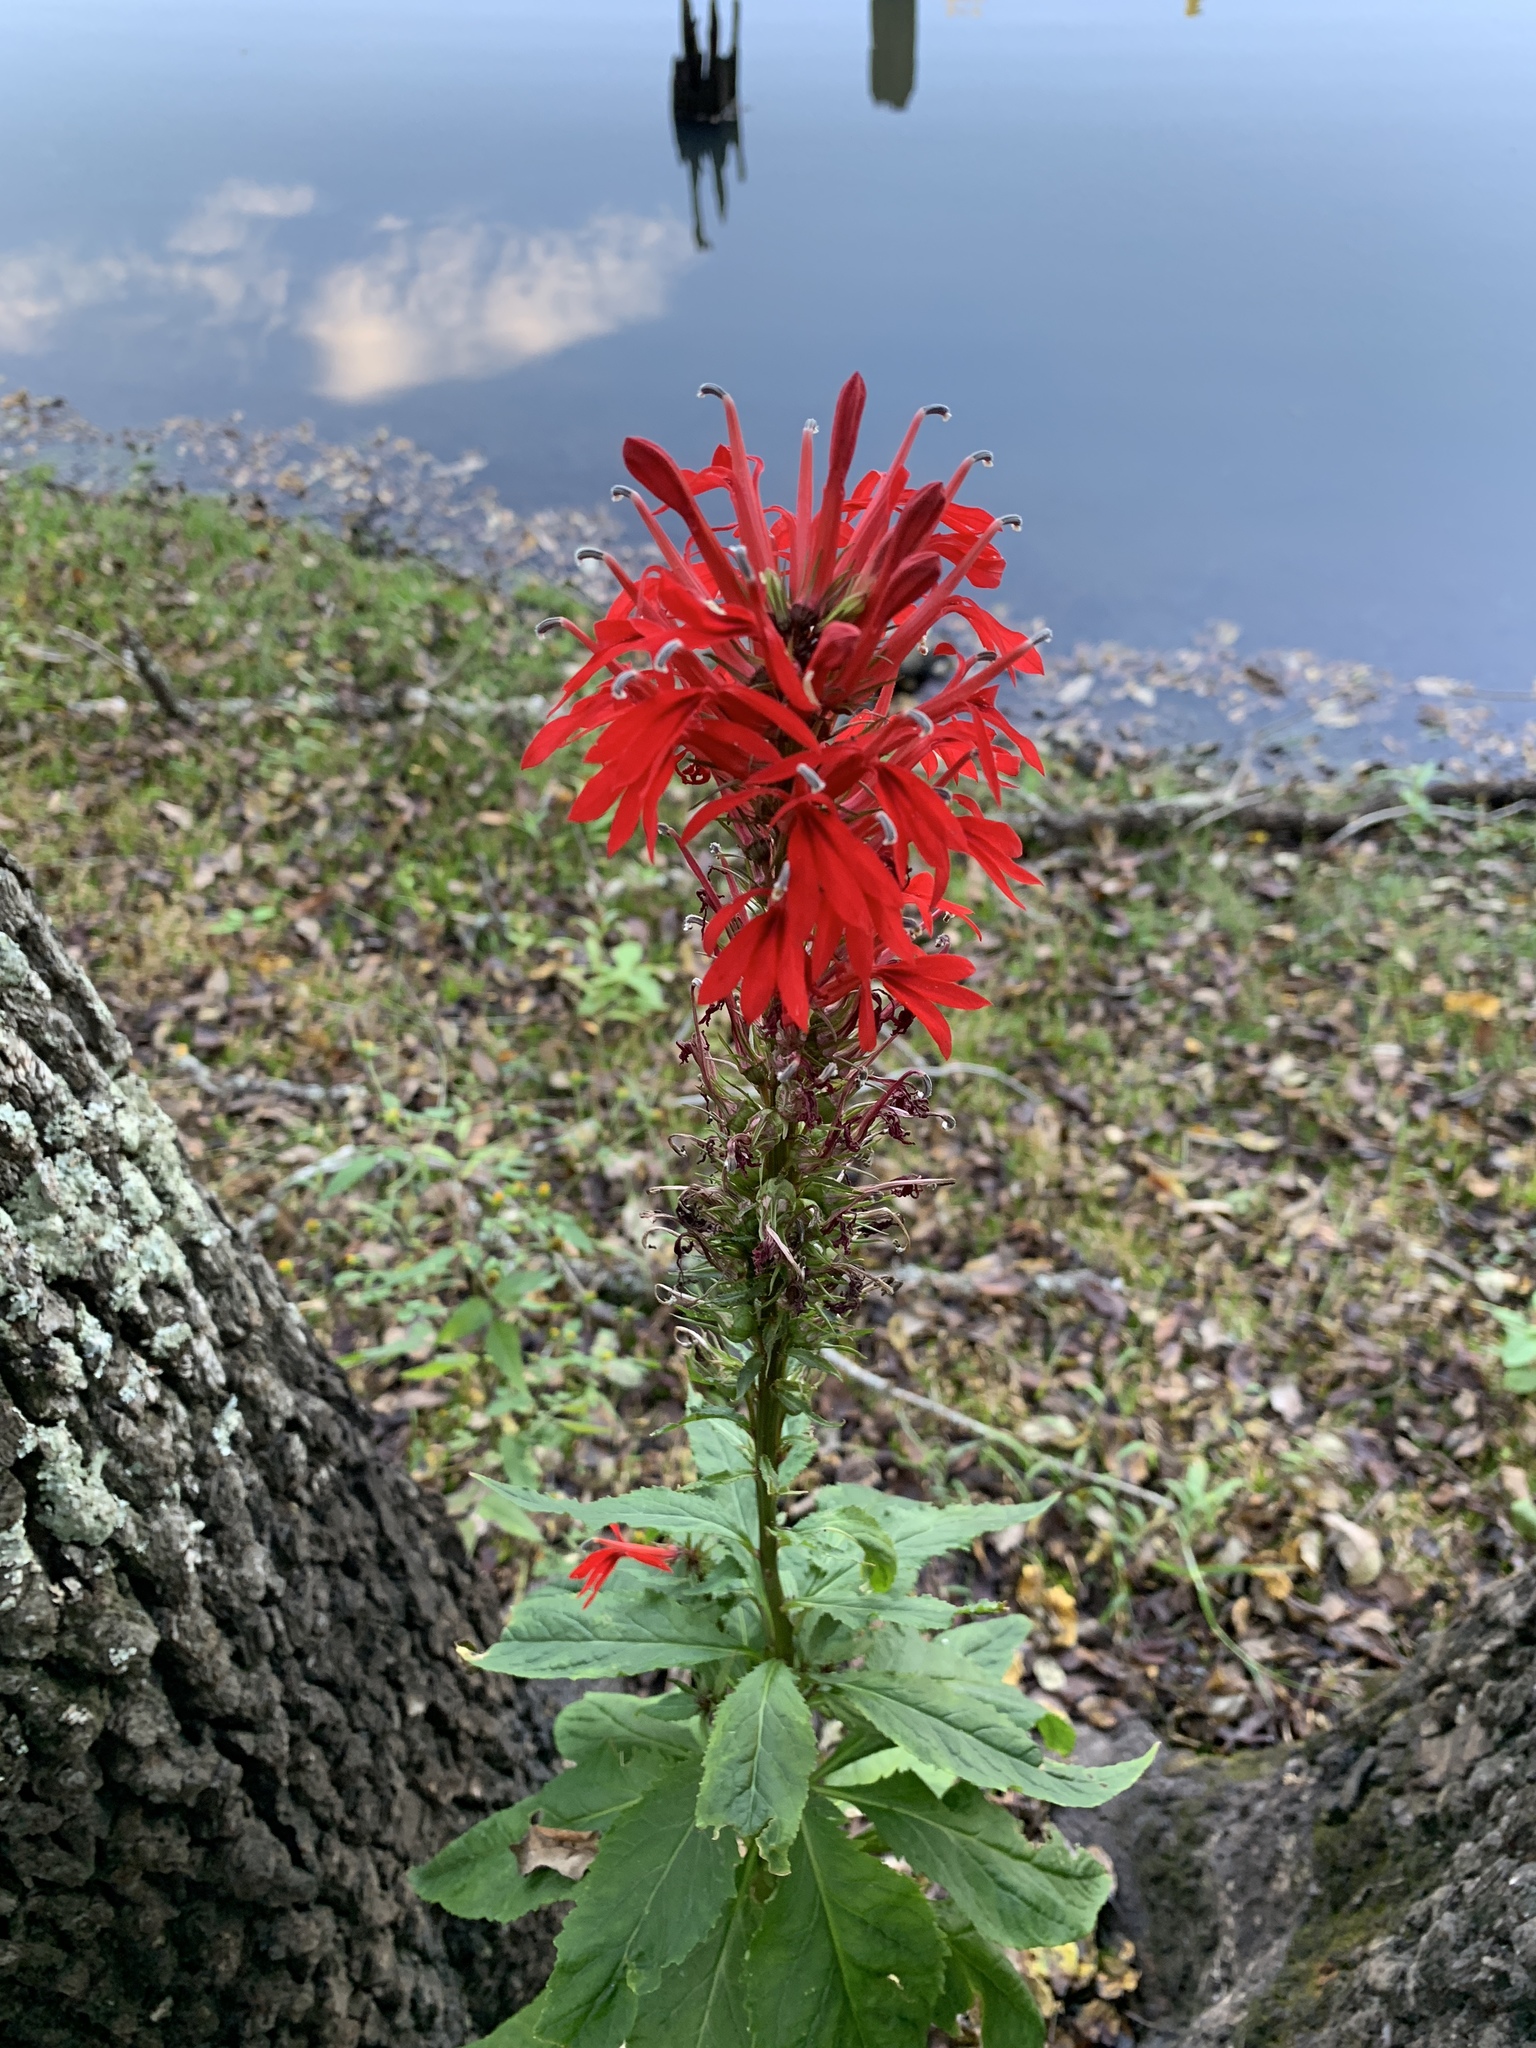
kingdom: Plantae
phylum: Tracheophyta
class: Magnoliopsida
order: Asterales
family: Campanulaceae
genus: Lobelia
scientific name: Lobelia cardinalis
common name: Cardinal flower
